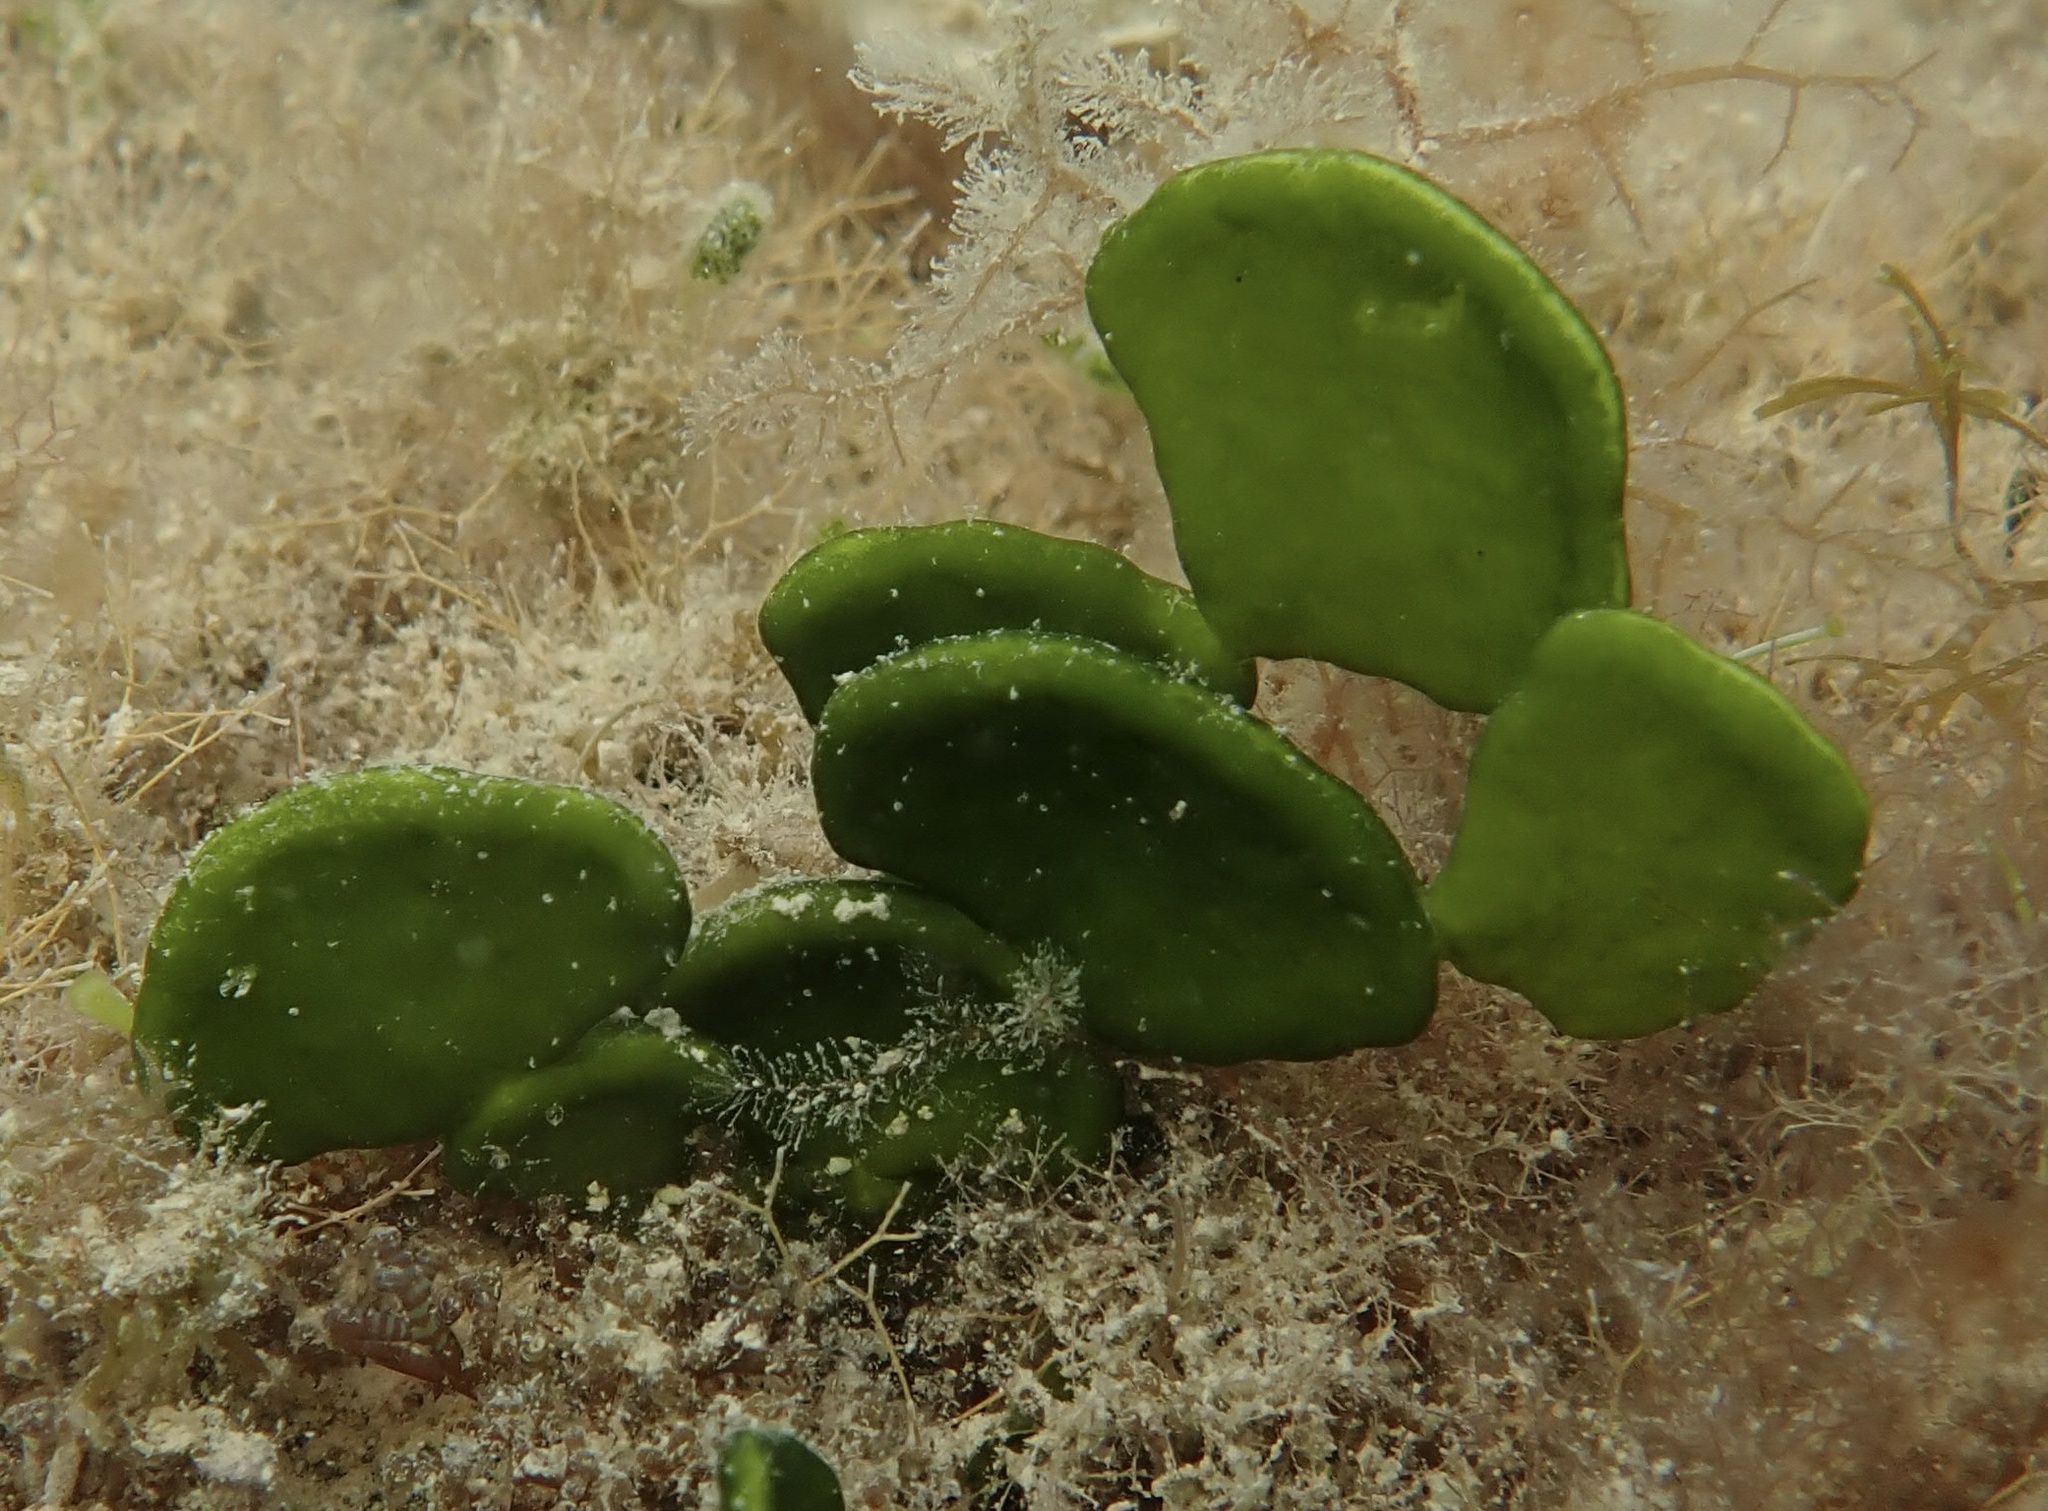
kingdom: Plantae
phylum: Chlorophyta
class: Ulvophyceae
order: Bryopsidales
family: Halimedaceae
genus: Halimeda
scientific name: Halimeda tuna
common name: Stalked lettuce leaf algae
